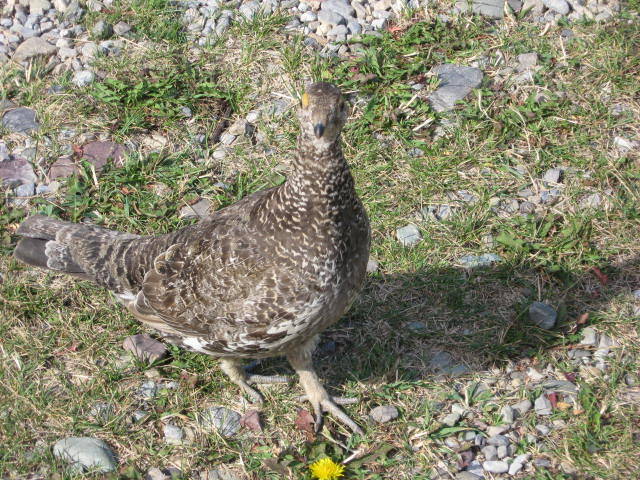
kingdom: Animalia
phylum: Chordata
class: Aves
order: Galliformes
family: Phasianidae
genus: Dendragapus
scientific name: Dendragapus obscurus
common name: Dusky grouse
